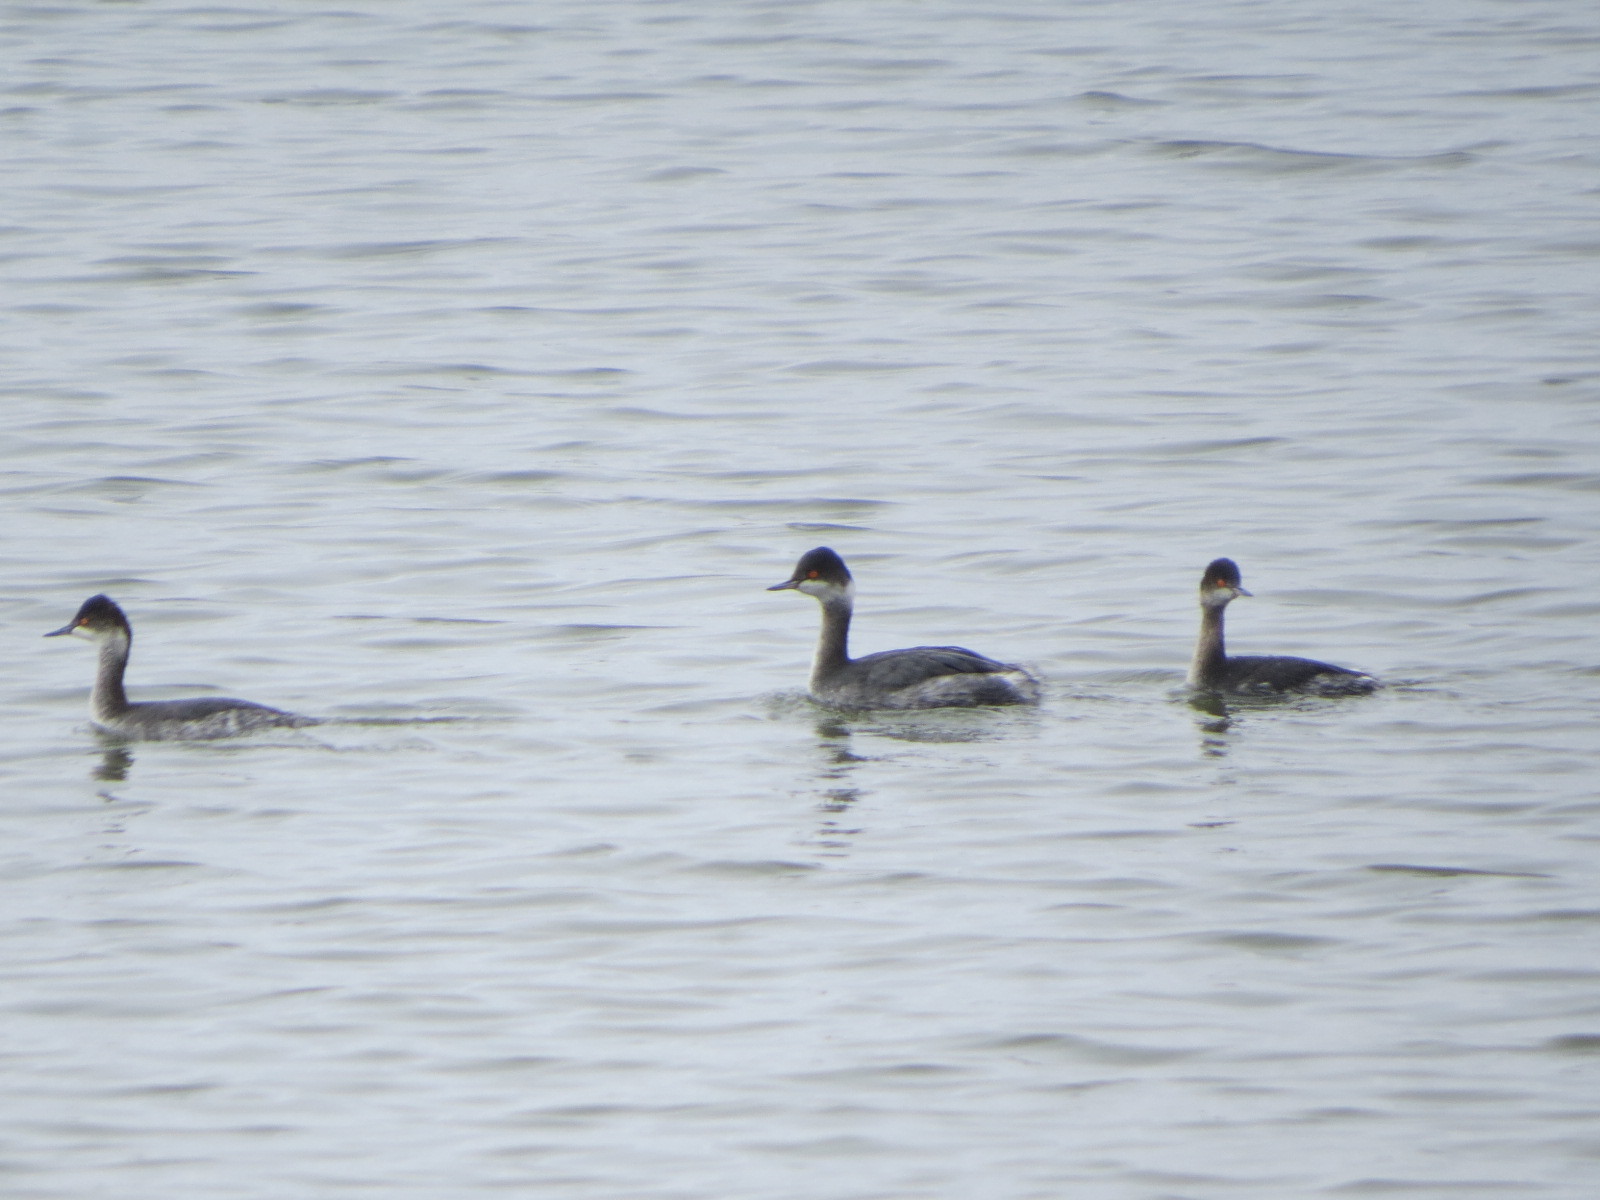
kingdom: Animalia
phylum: Chordata
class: Aves
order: Podicipediformes
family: Podicipedidae
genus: Podiceps
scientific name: Podiceps auritus
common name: Horned grebe
